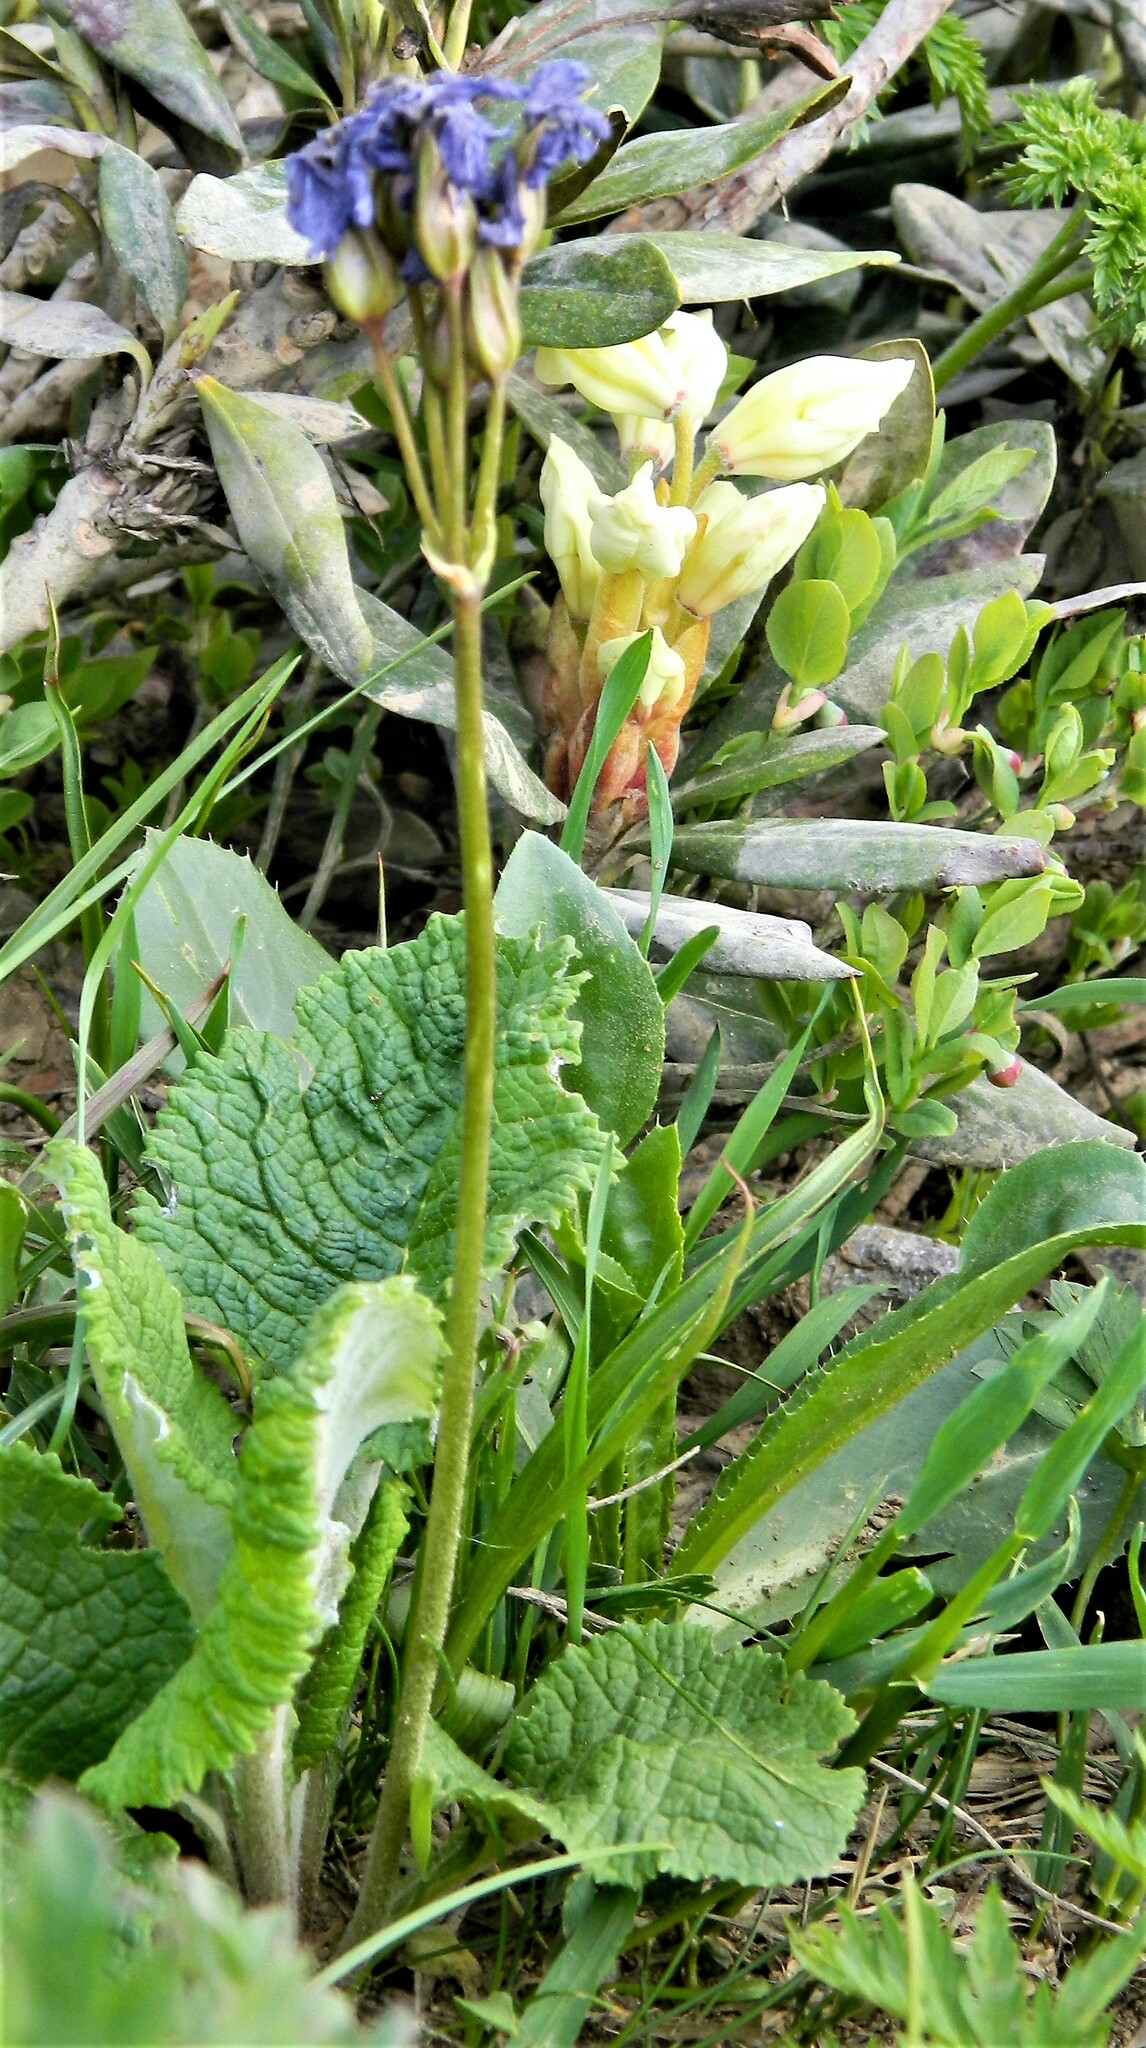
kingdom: Plantae
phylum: Tracheophyta
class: Magnoliopsida
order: Ericales
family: Primulaceae
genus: Primula
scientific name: Primula amoena
